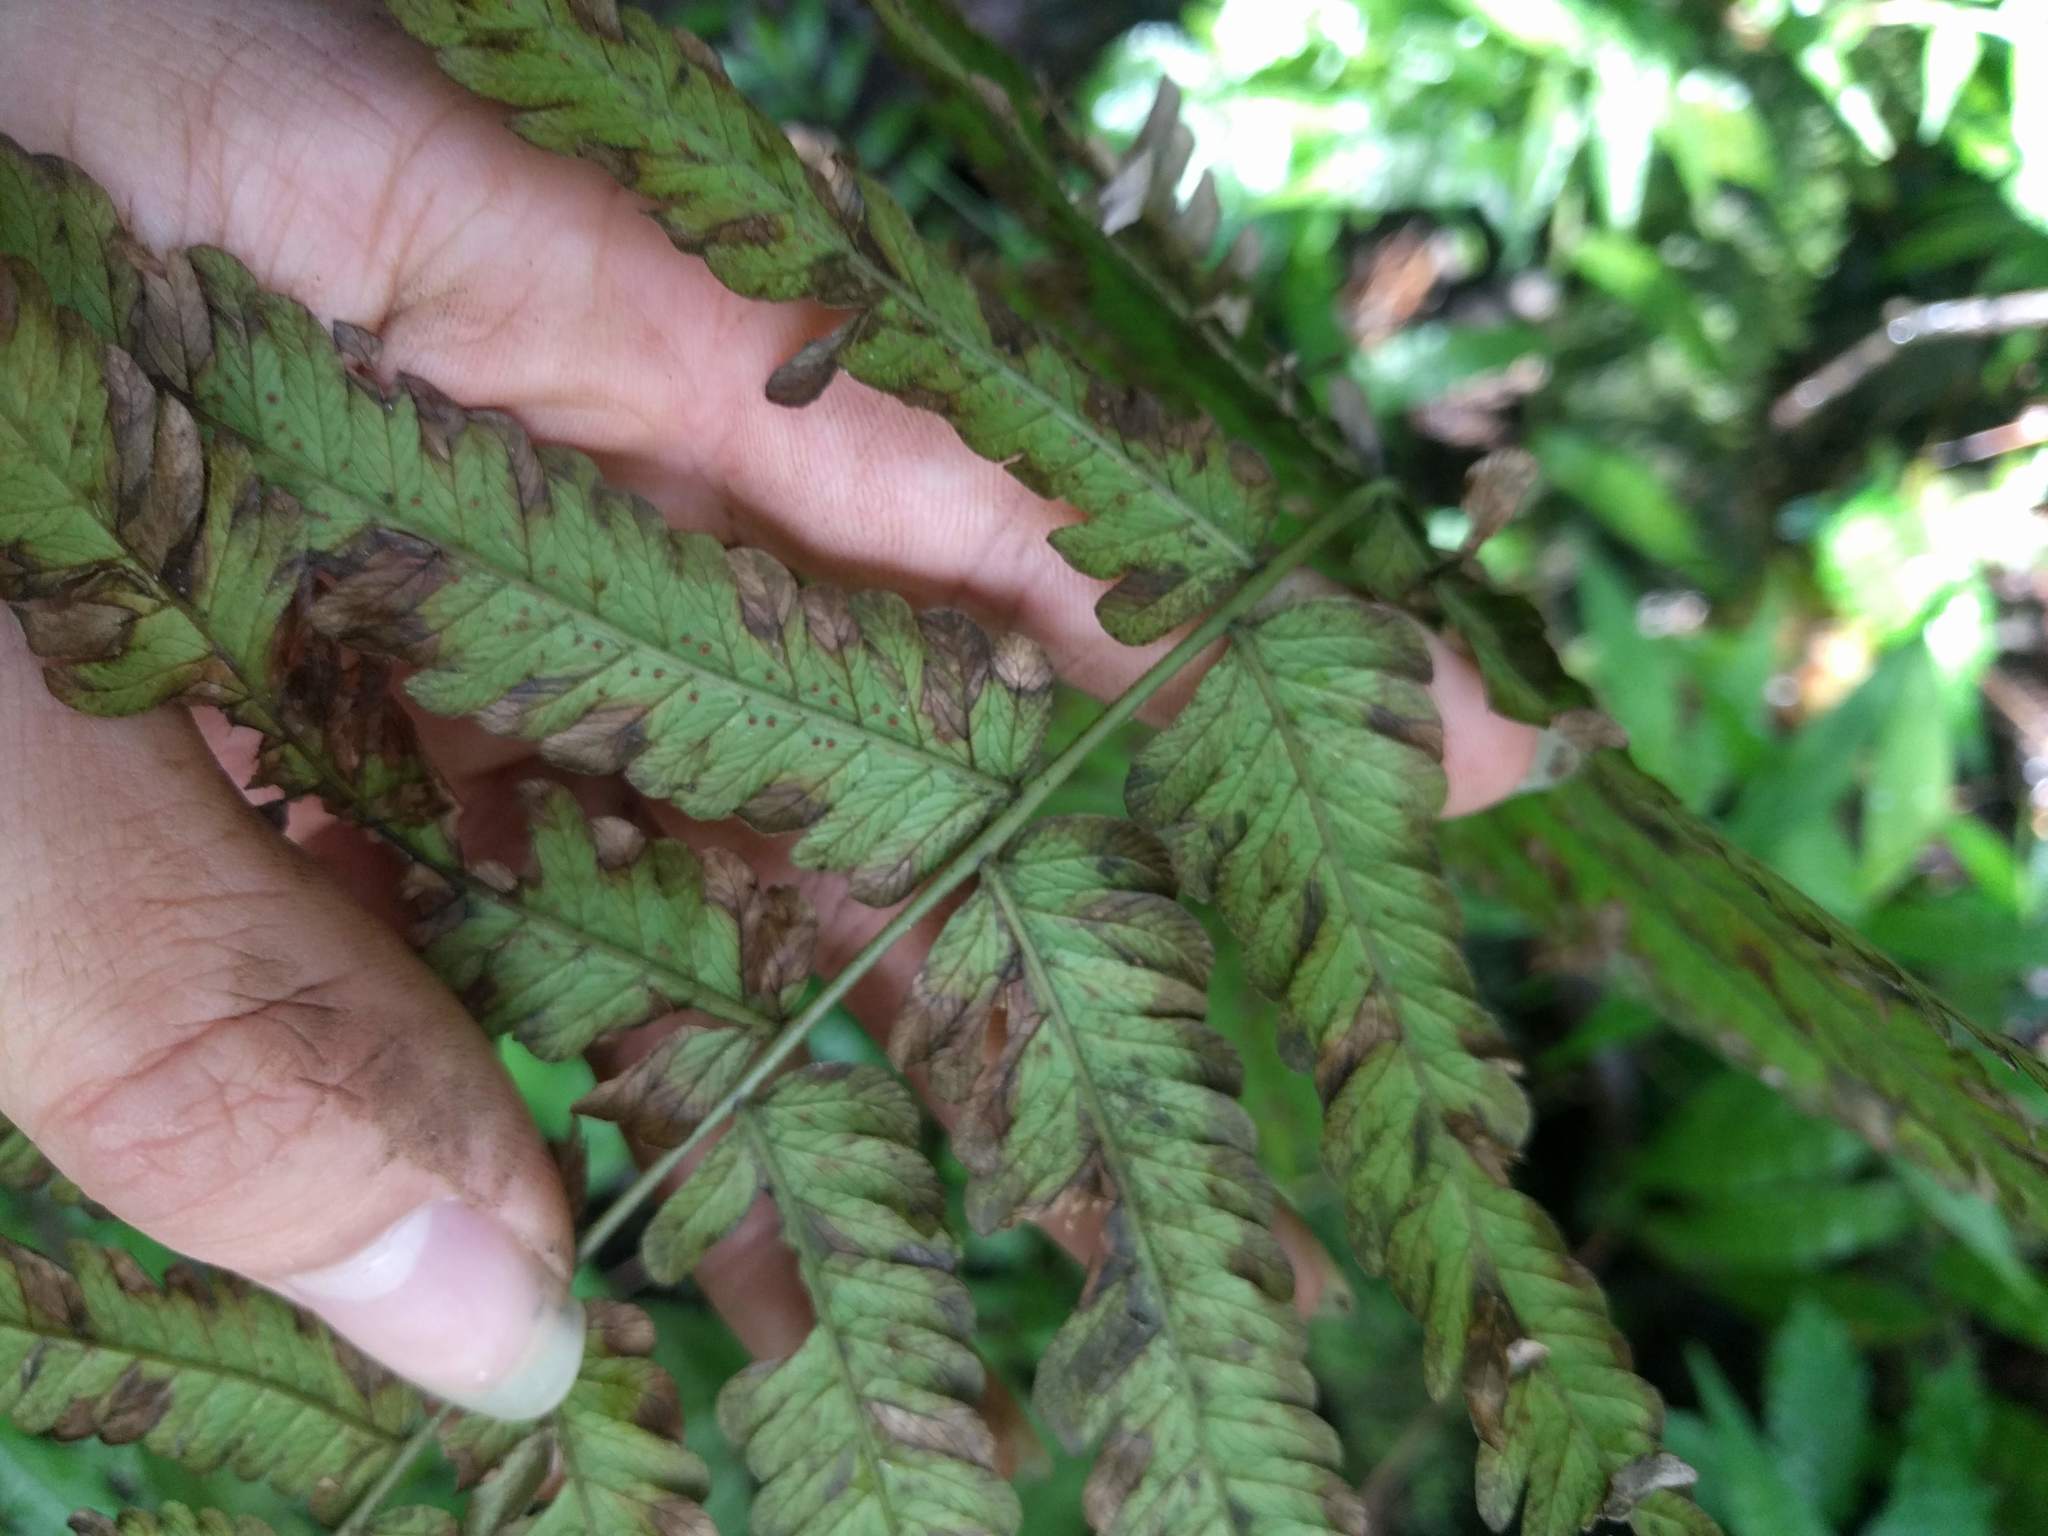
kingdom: Plantae
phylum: Tracheophyta
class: Polypodiopsida
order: Polypodiales
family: Thelypteridaceae
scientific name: Thelypteridaceae
